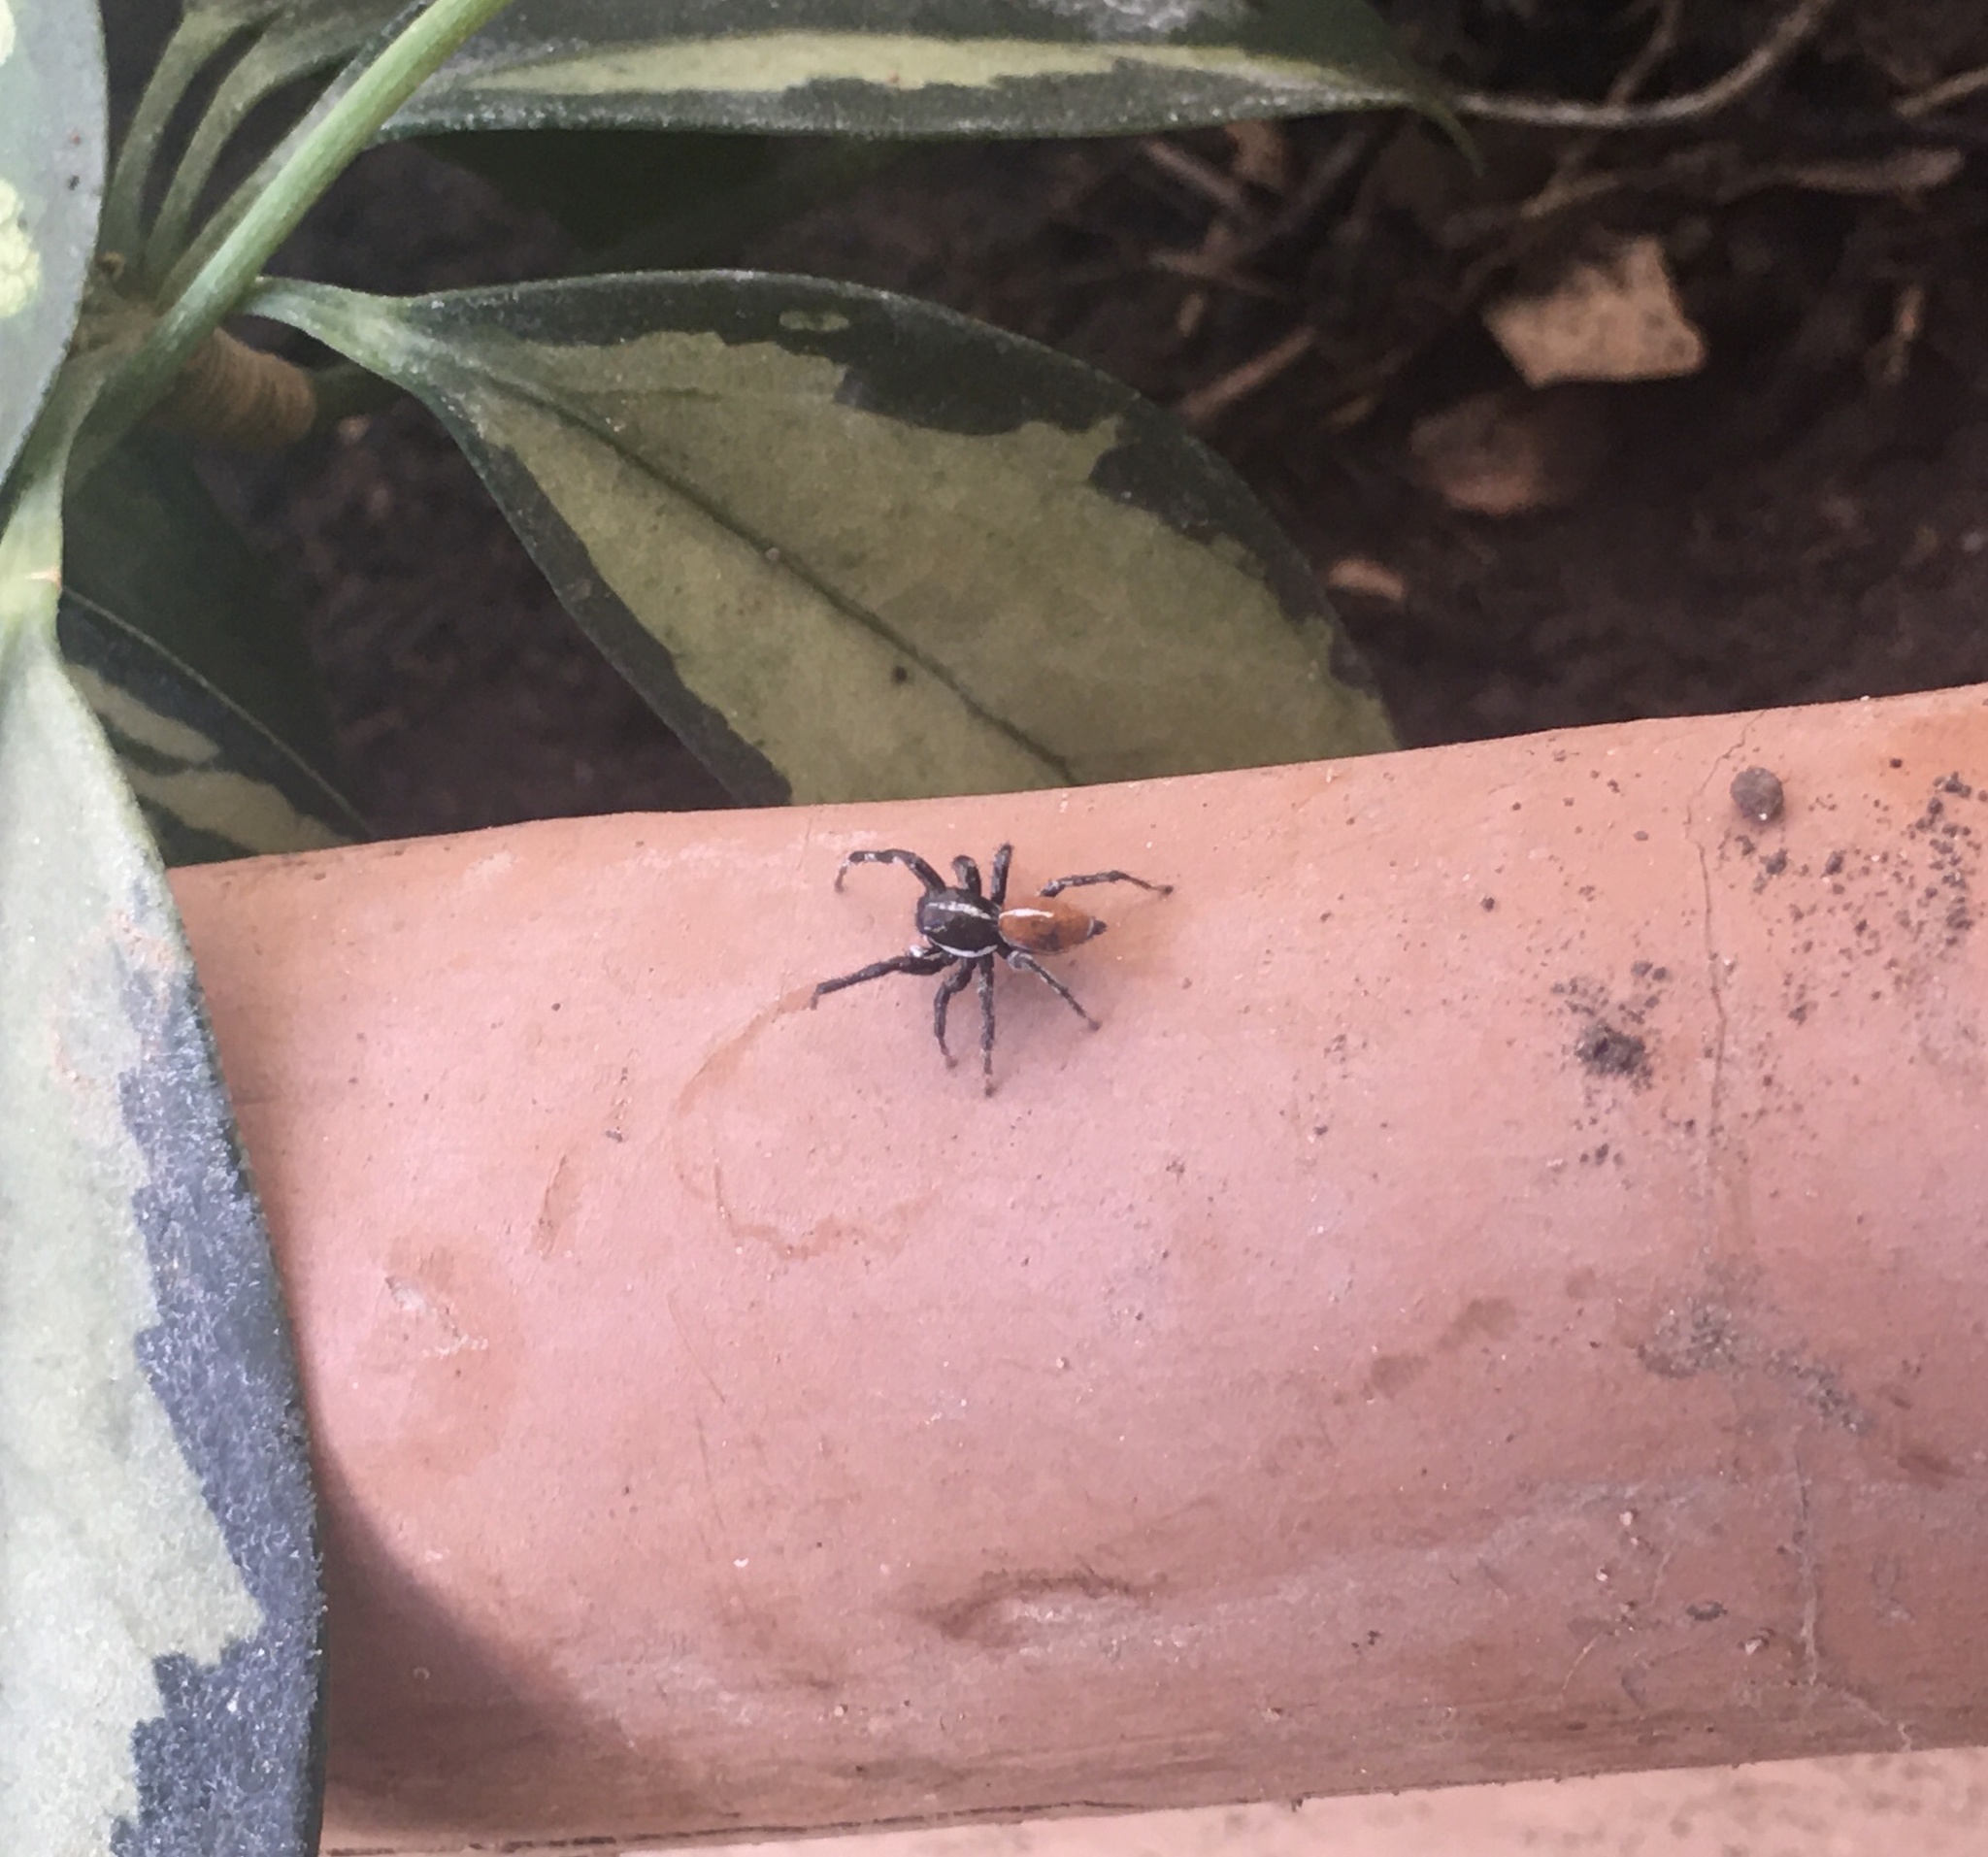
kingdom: Animalia
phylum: Arthropoda
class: Arachnida
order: Araneae
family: Salticidae
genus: Phiale
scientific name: Phiale roburifoliata
